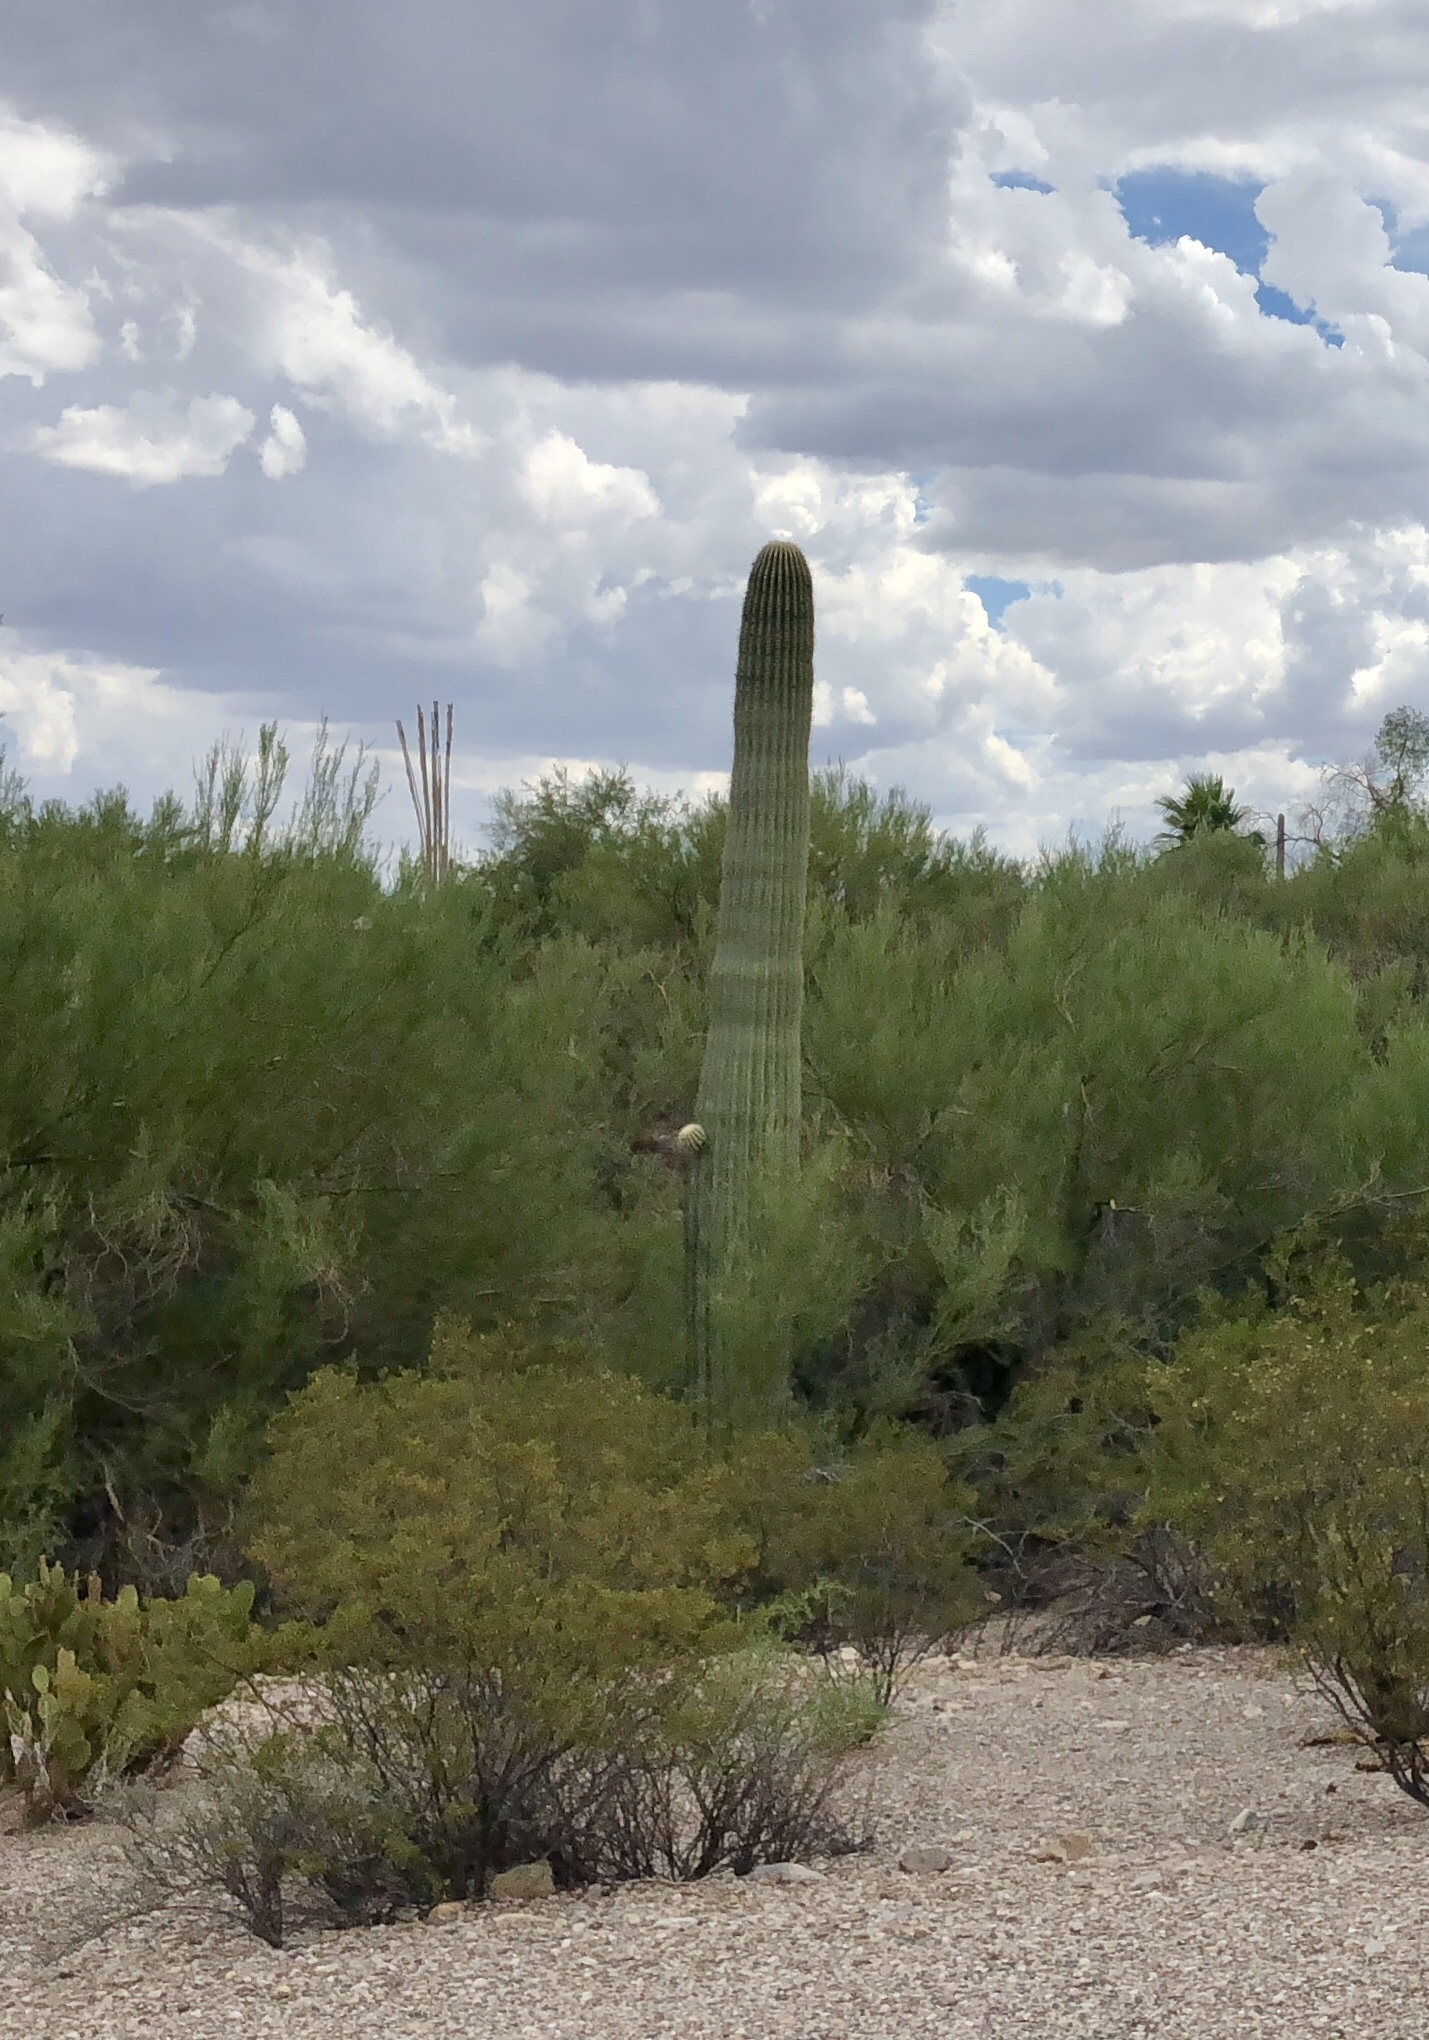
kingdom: Plantae
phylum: Tracheophyta
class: Magnoliopsida
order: Caryophyllales
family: Cactaceae
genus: Carnegiea
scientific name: Carnegiea gigantea
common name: Saguaro
